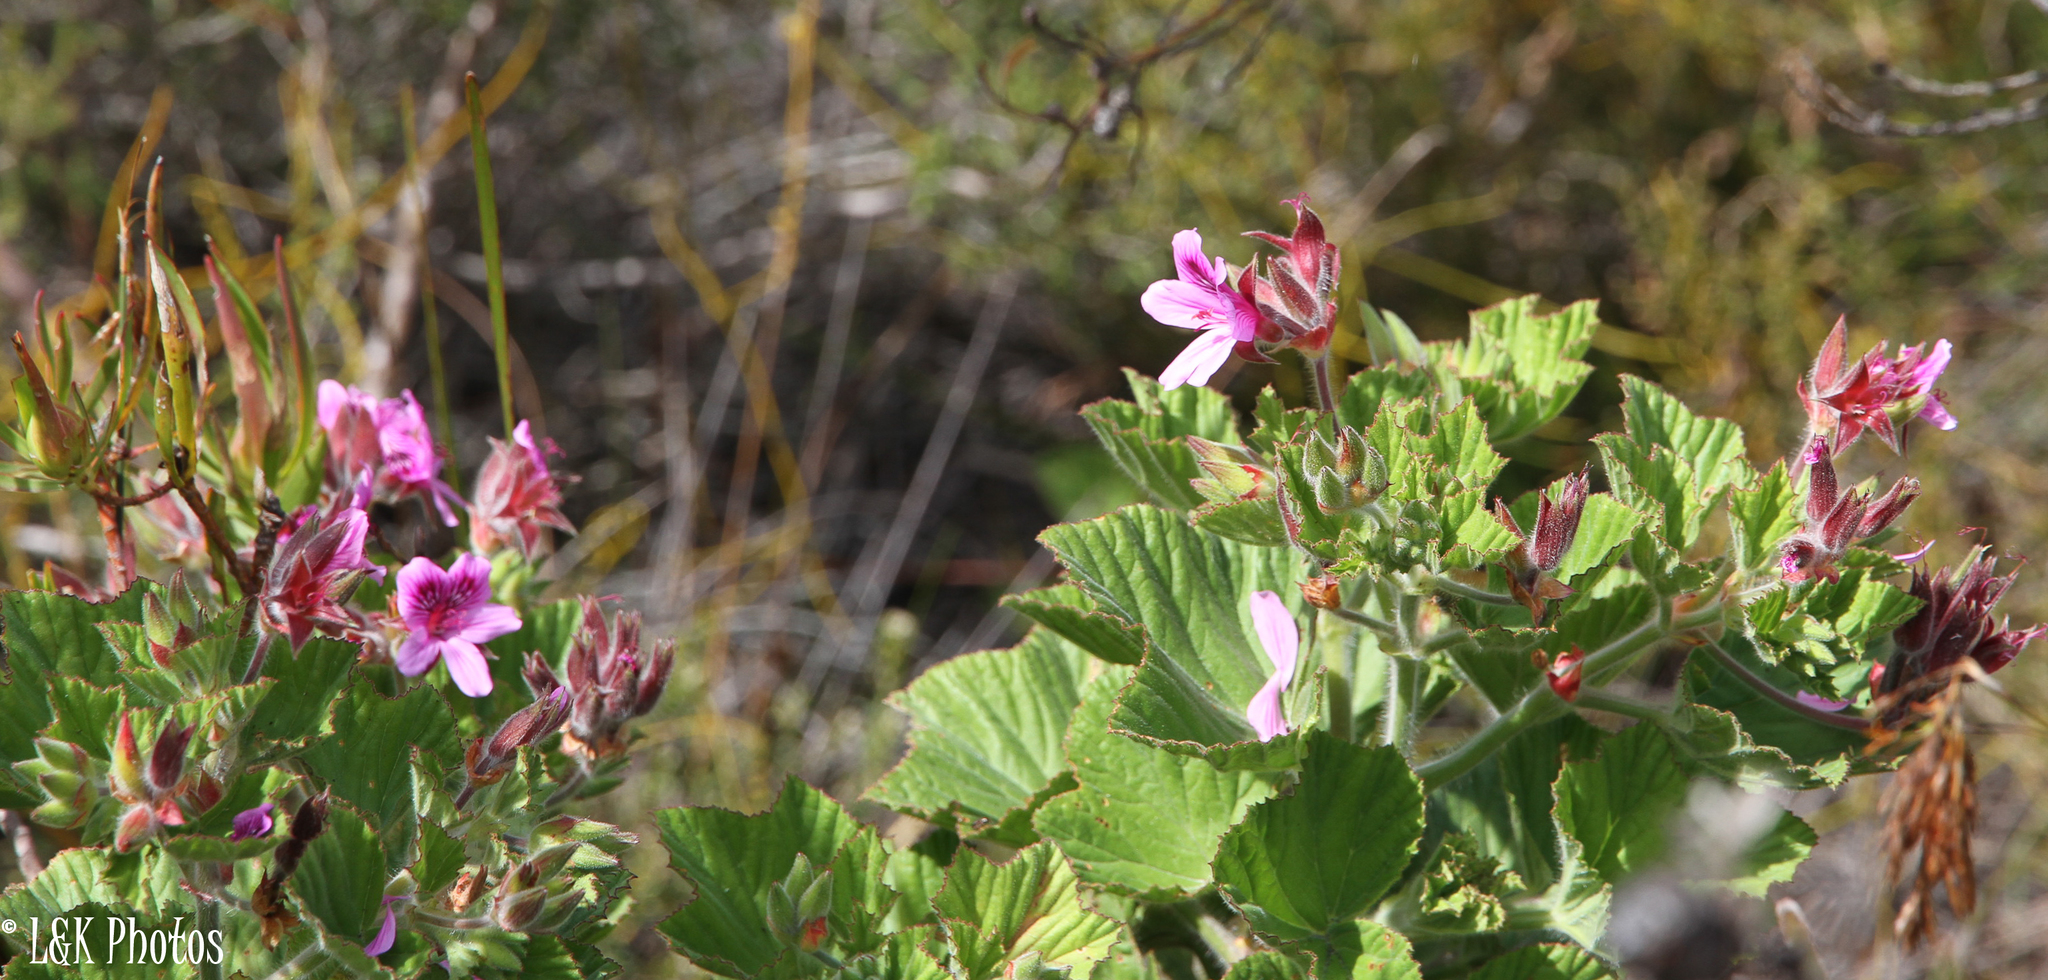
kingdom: Plantae
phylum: Tracheophyta
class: Magnoliopsida
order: Geraniales
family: Geraniaceae
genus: Pelargonium
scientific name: Pelargonium cucullatum
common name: Tree pelargonium
